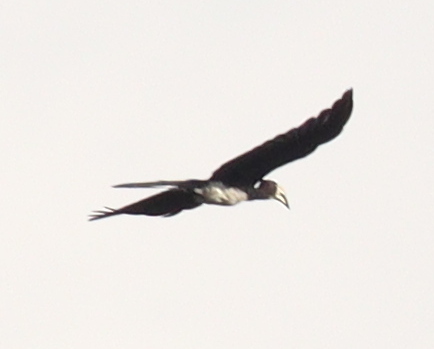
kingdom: Animalia
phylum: Chordata
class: Aves
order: Bucerotiformes
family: Bucerotidae
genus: Lophoceros
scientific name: Lophoceros fasciatus
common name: African pied hornbill
